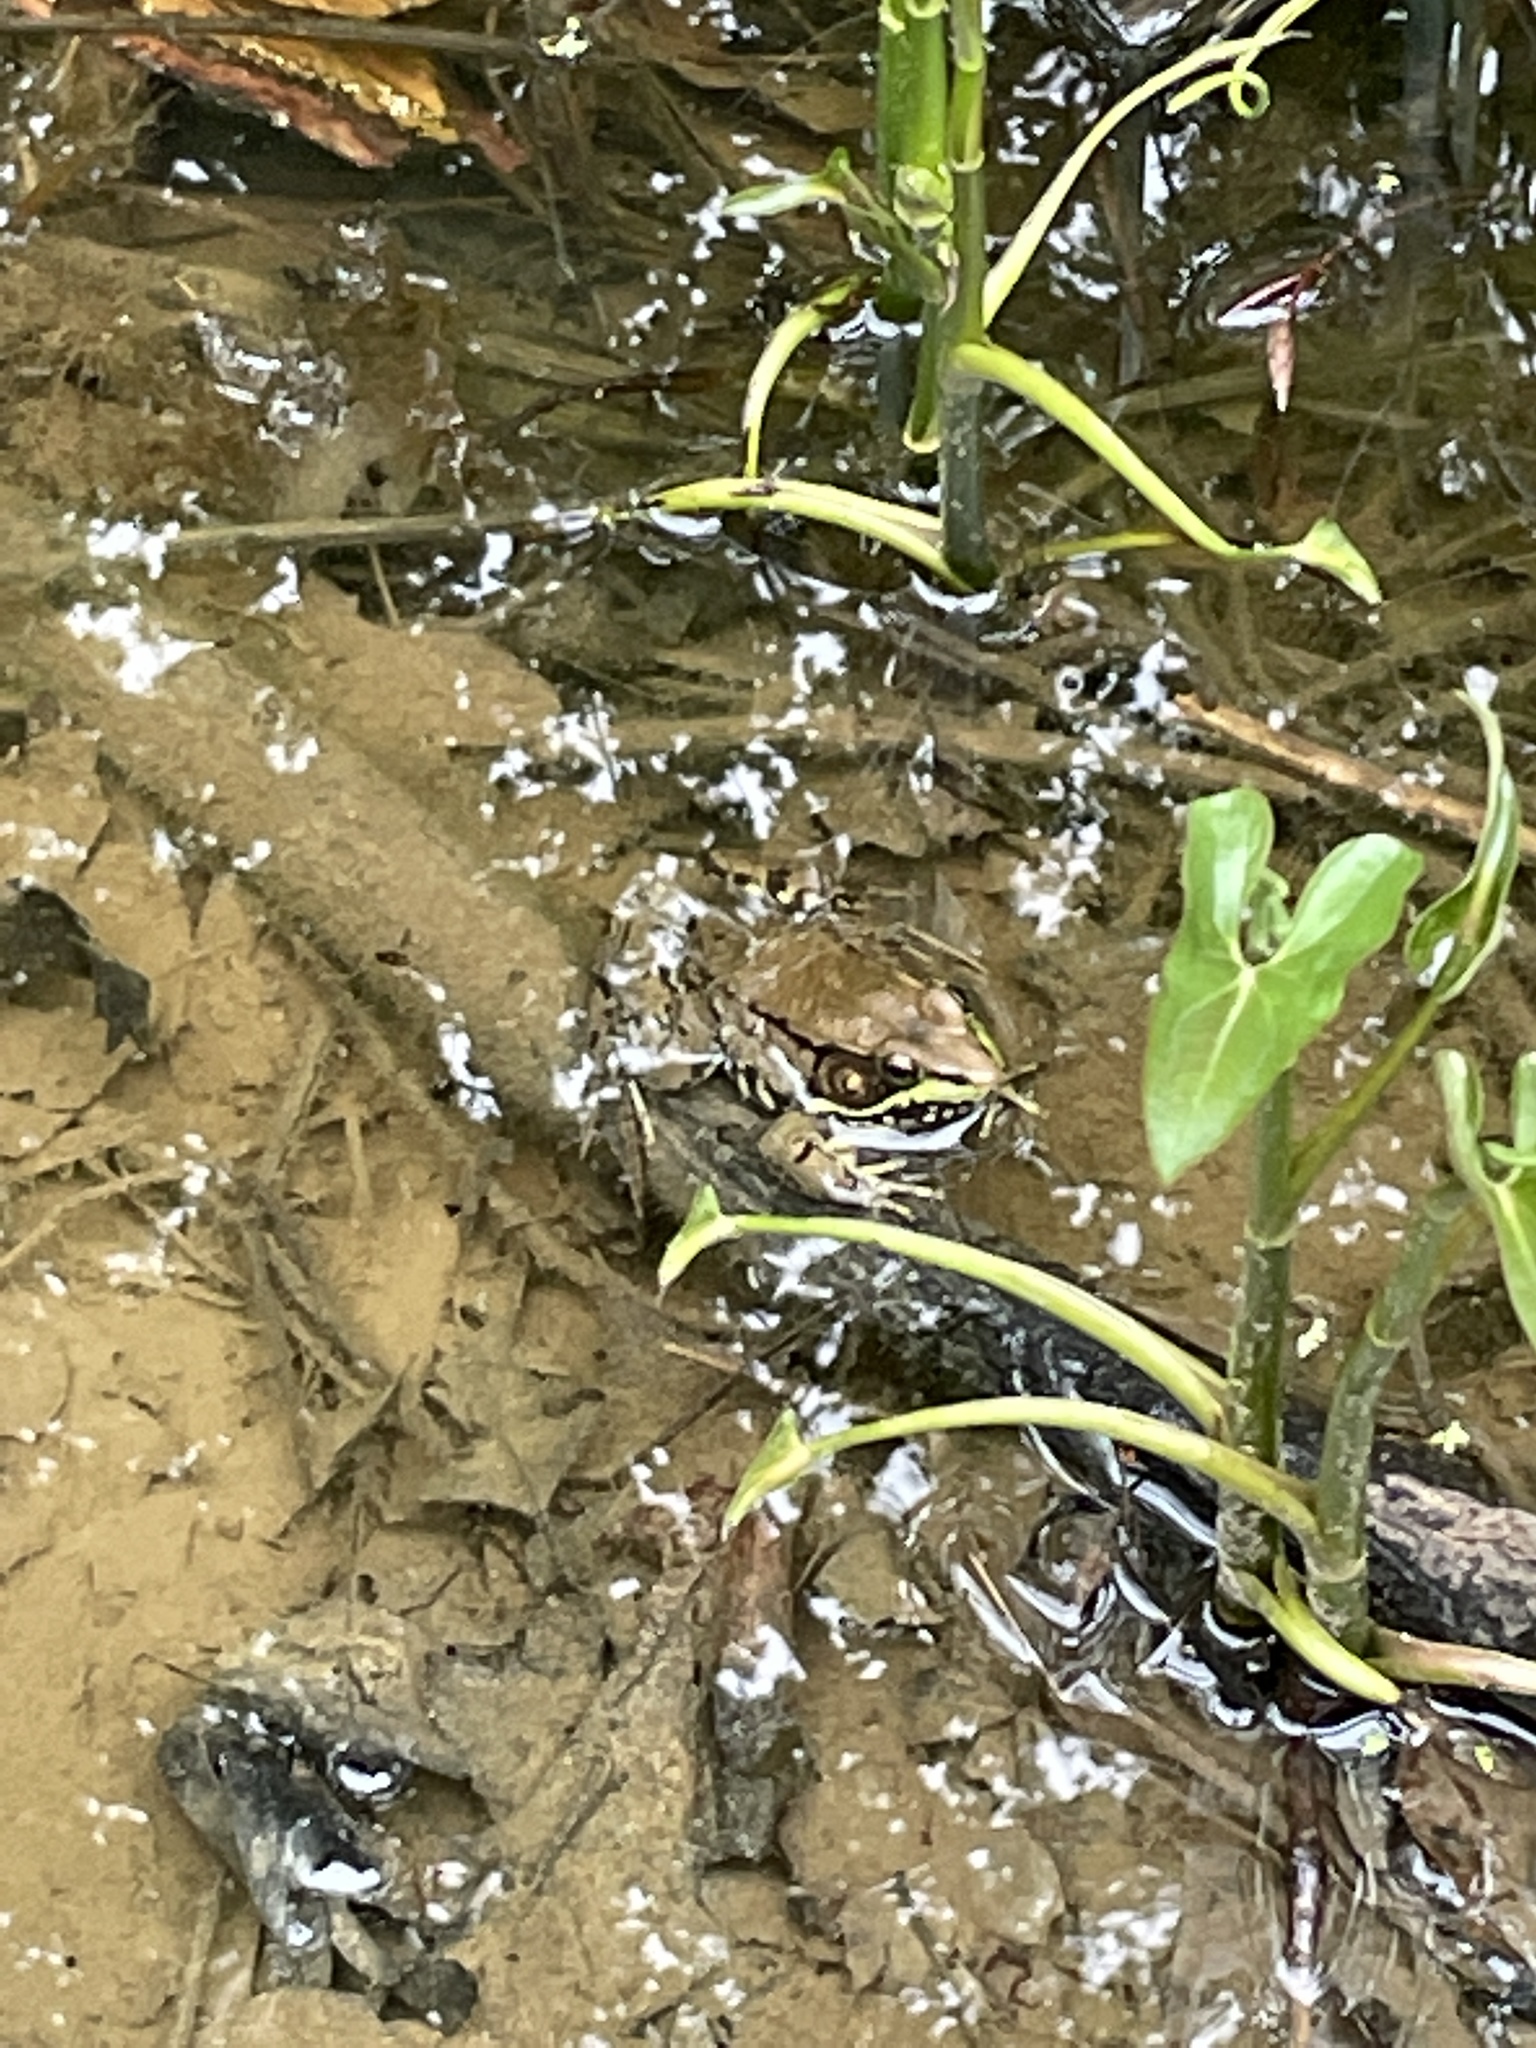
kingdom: Animalia
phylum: Chordata
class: Amphibia
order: Anura
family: Ranidae
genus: Lithobates
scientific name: Lithobates clamitans
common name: Green frog
